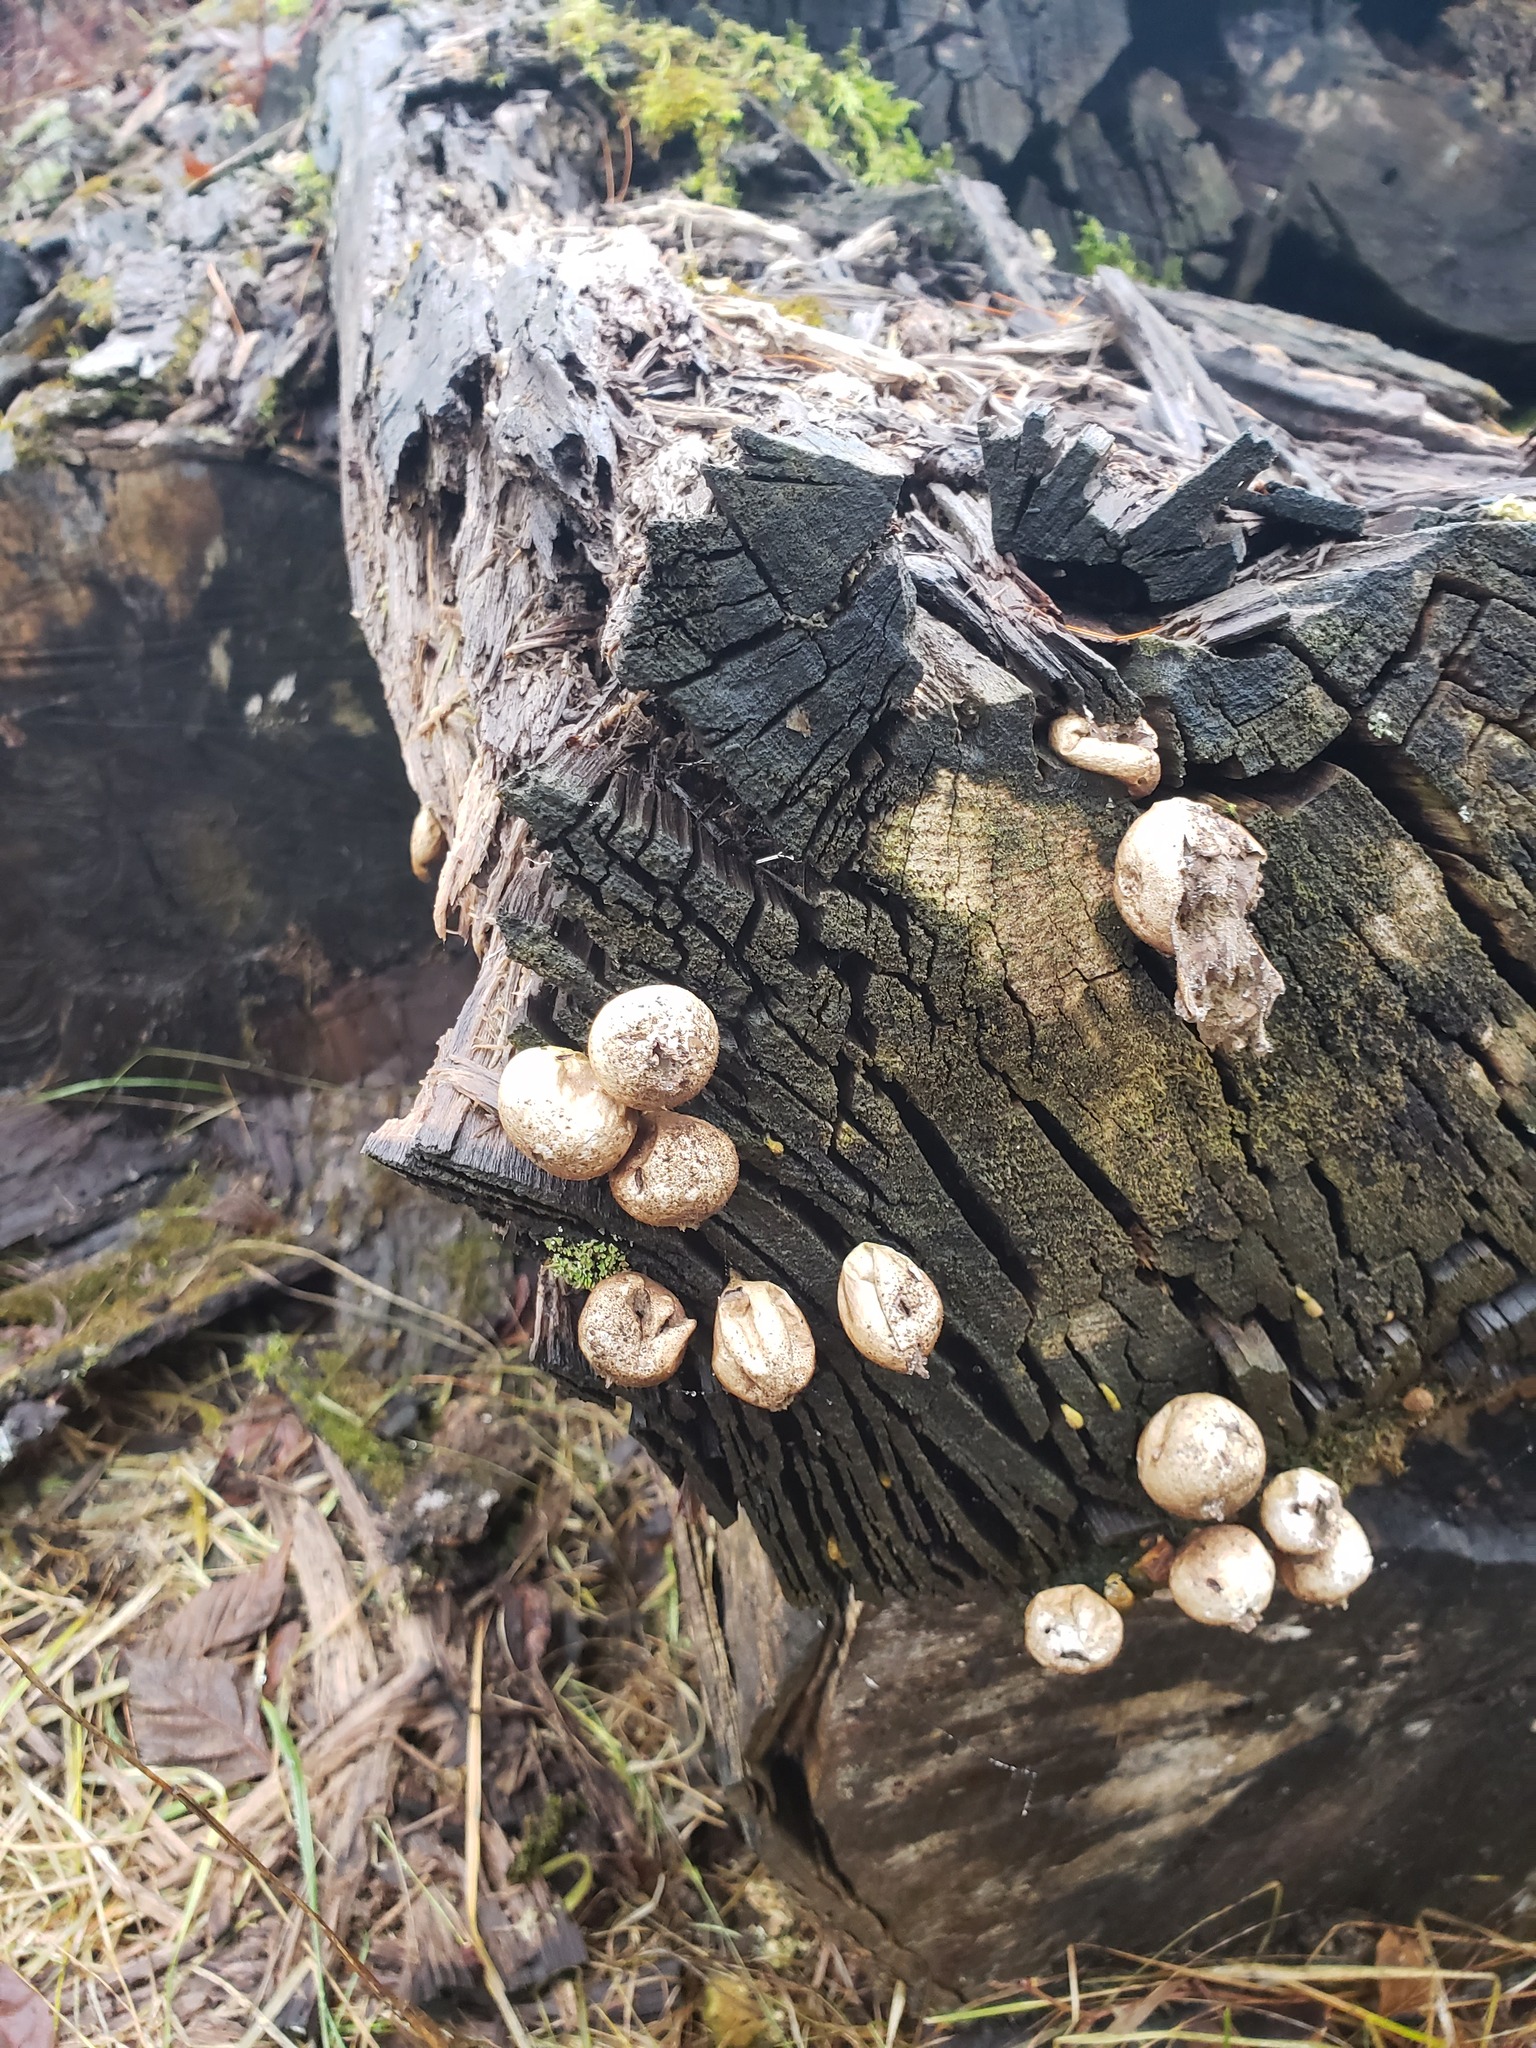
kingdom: Fungi
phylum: Basidiomycota
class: Agaricomycetes
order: Agaricales
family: Lycoperdaceae
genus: Apioperdon
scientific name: Apioperdon pyriforme
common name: Pear-shaped puffball
